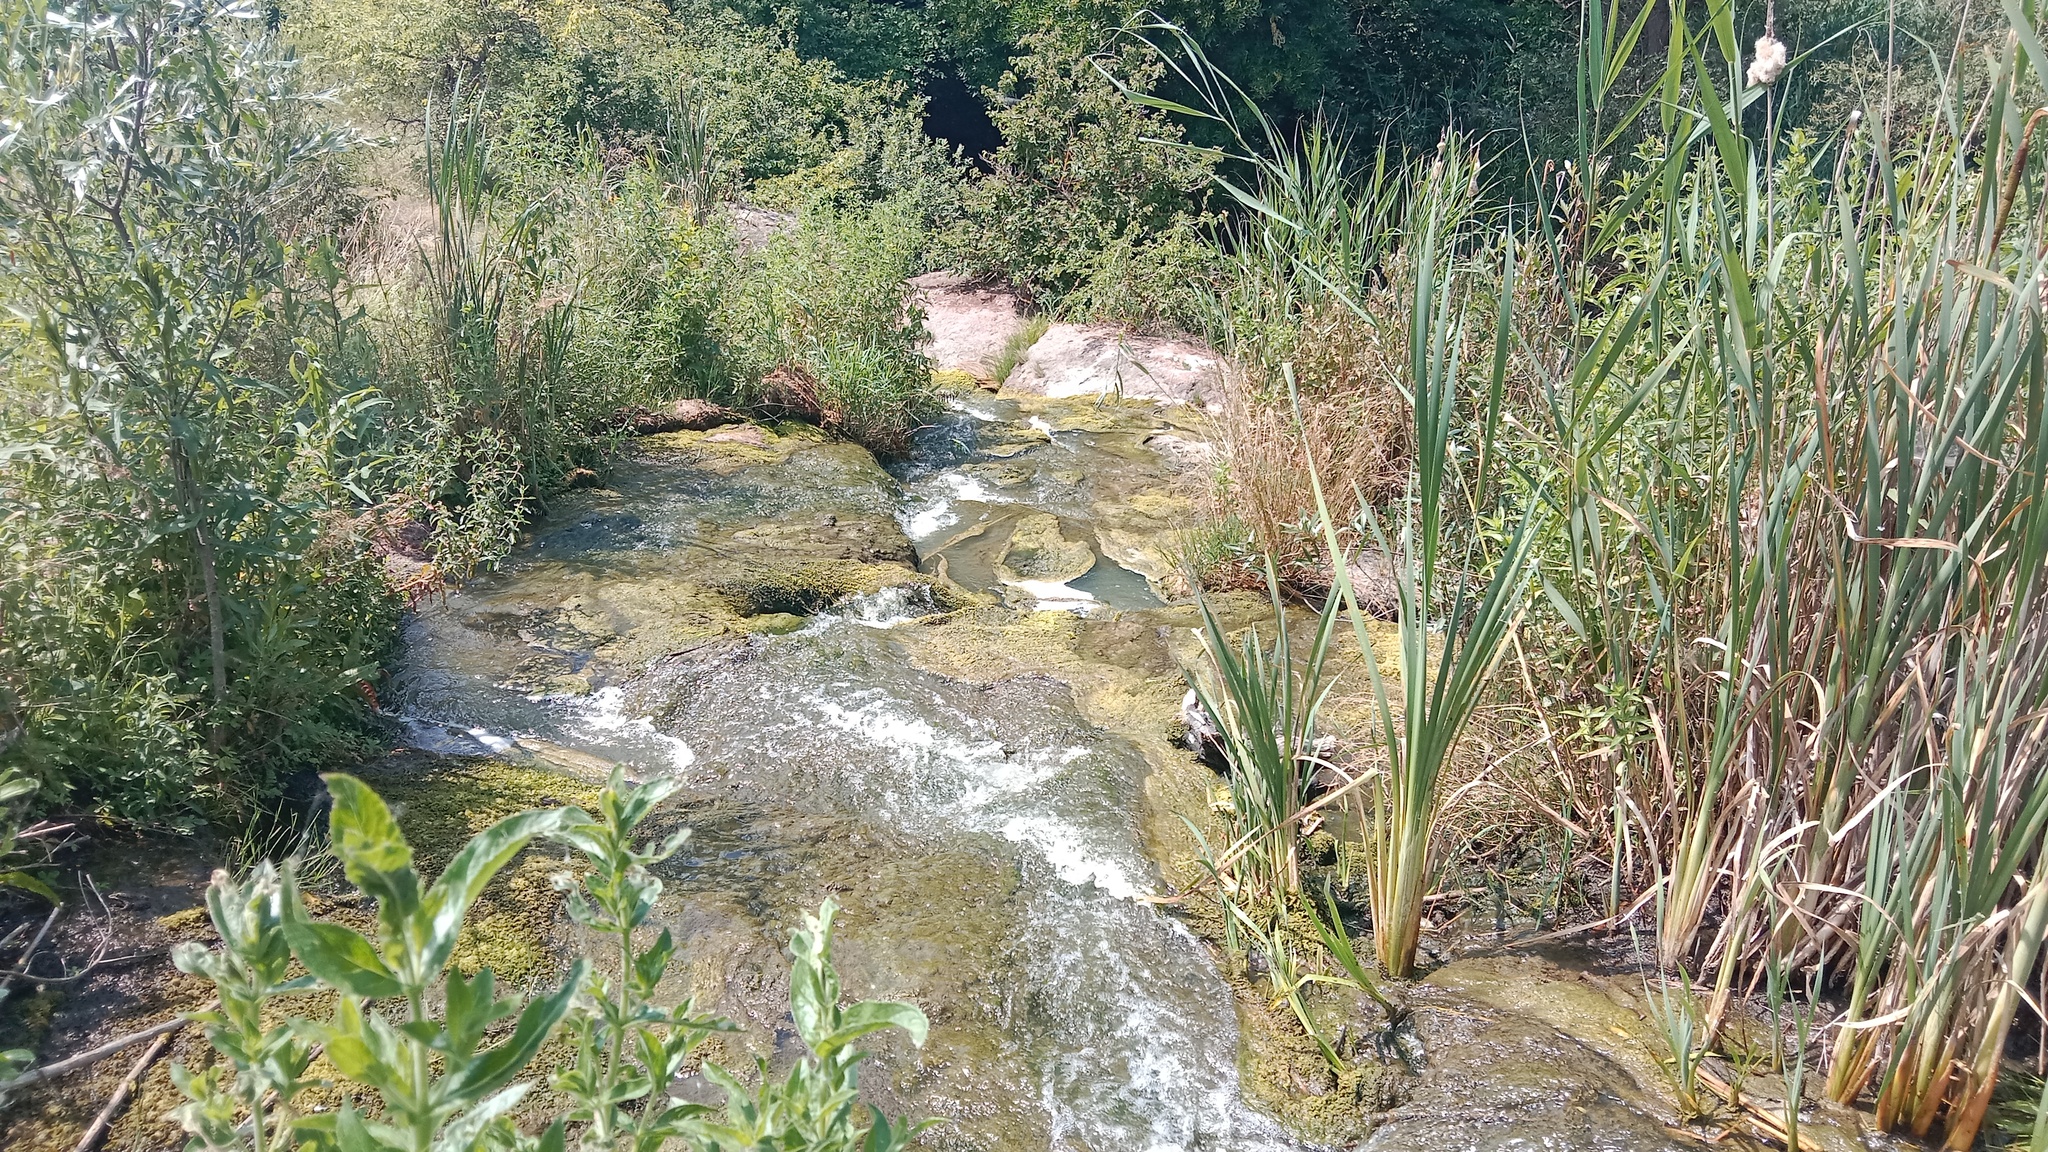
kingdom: Plantae
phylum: Tracheophyta
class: Liliopsida
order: Poales
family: Typhaceae
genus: Typha
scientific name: Typha latifolia
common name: Broadleaf cattail
